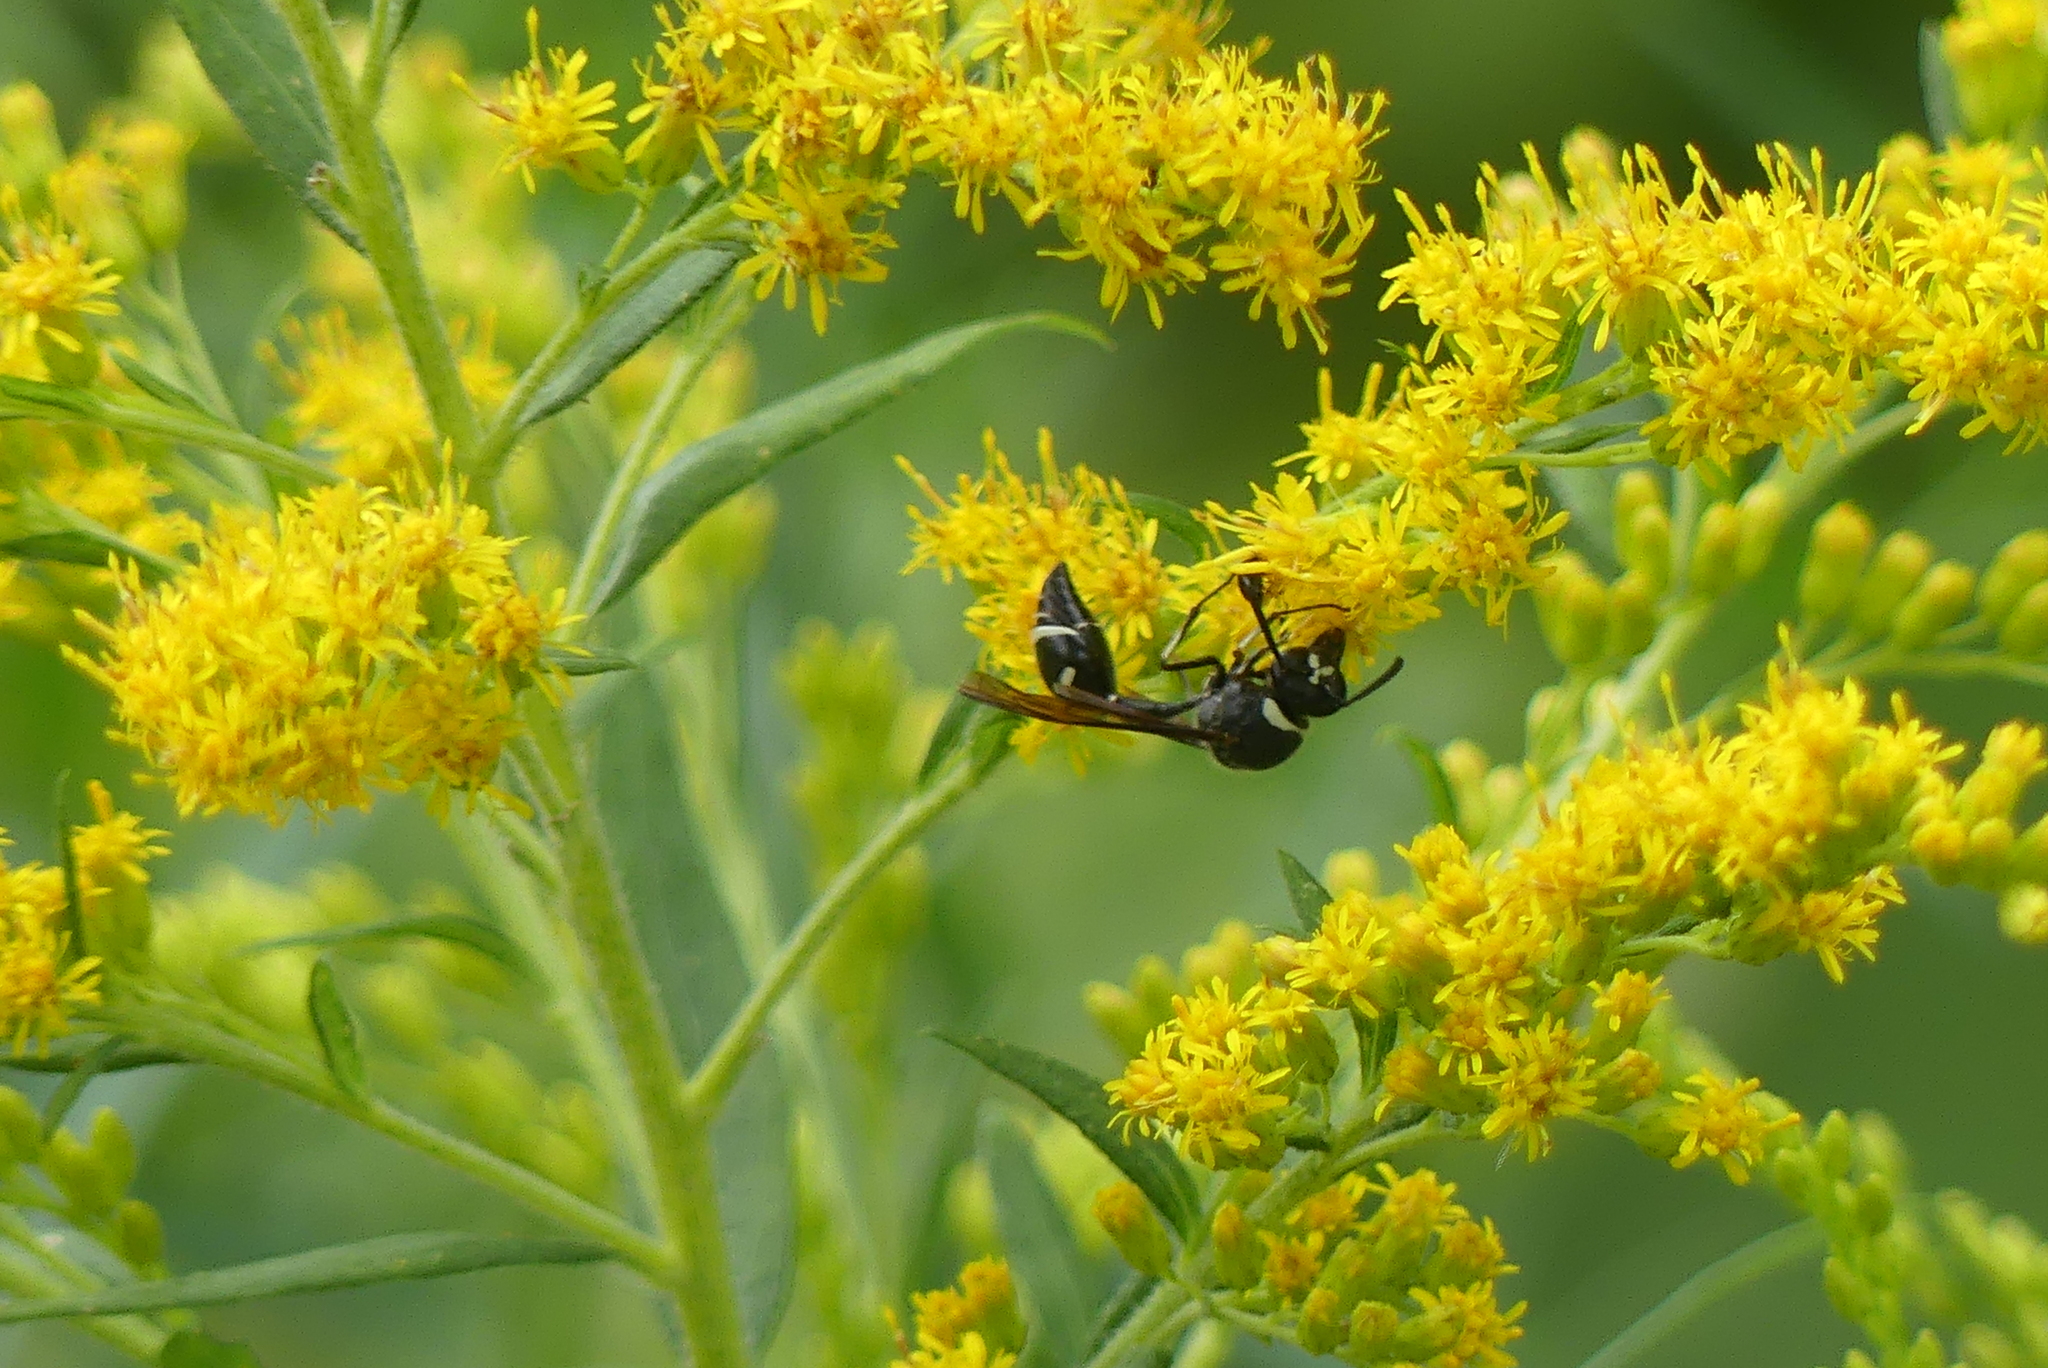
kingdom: Animalia
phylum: Arthropoda
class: Insecta
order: Hymenoptera
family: Vespidae
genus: Eumenes
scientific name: Eumenes fraternus
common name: Fraternal potter wasp
